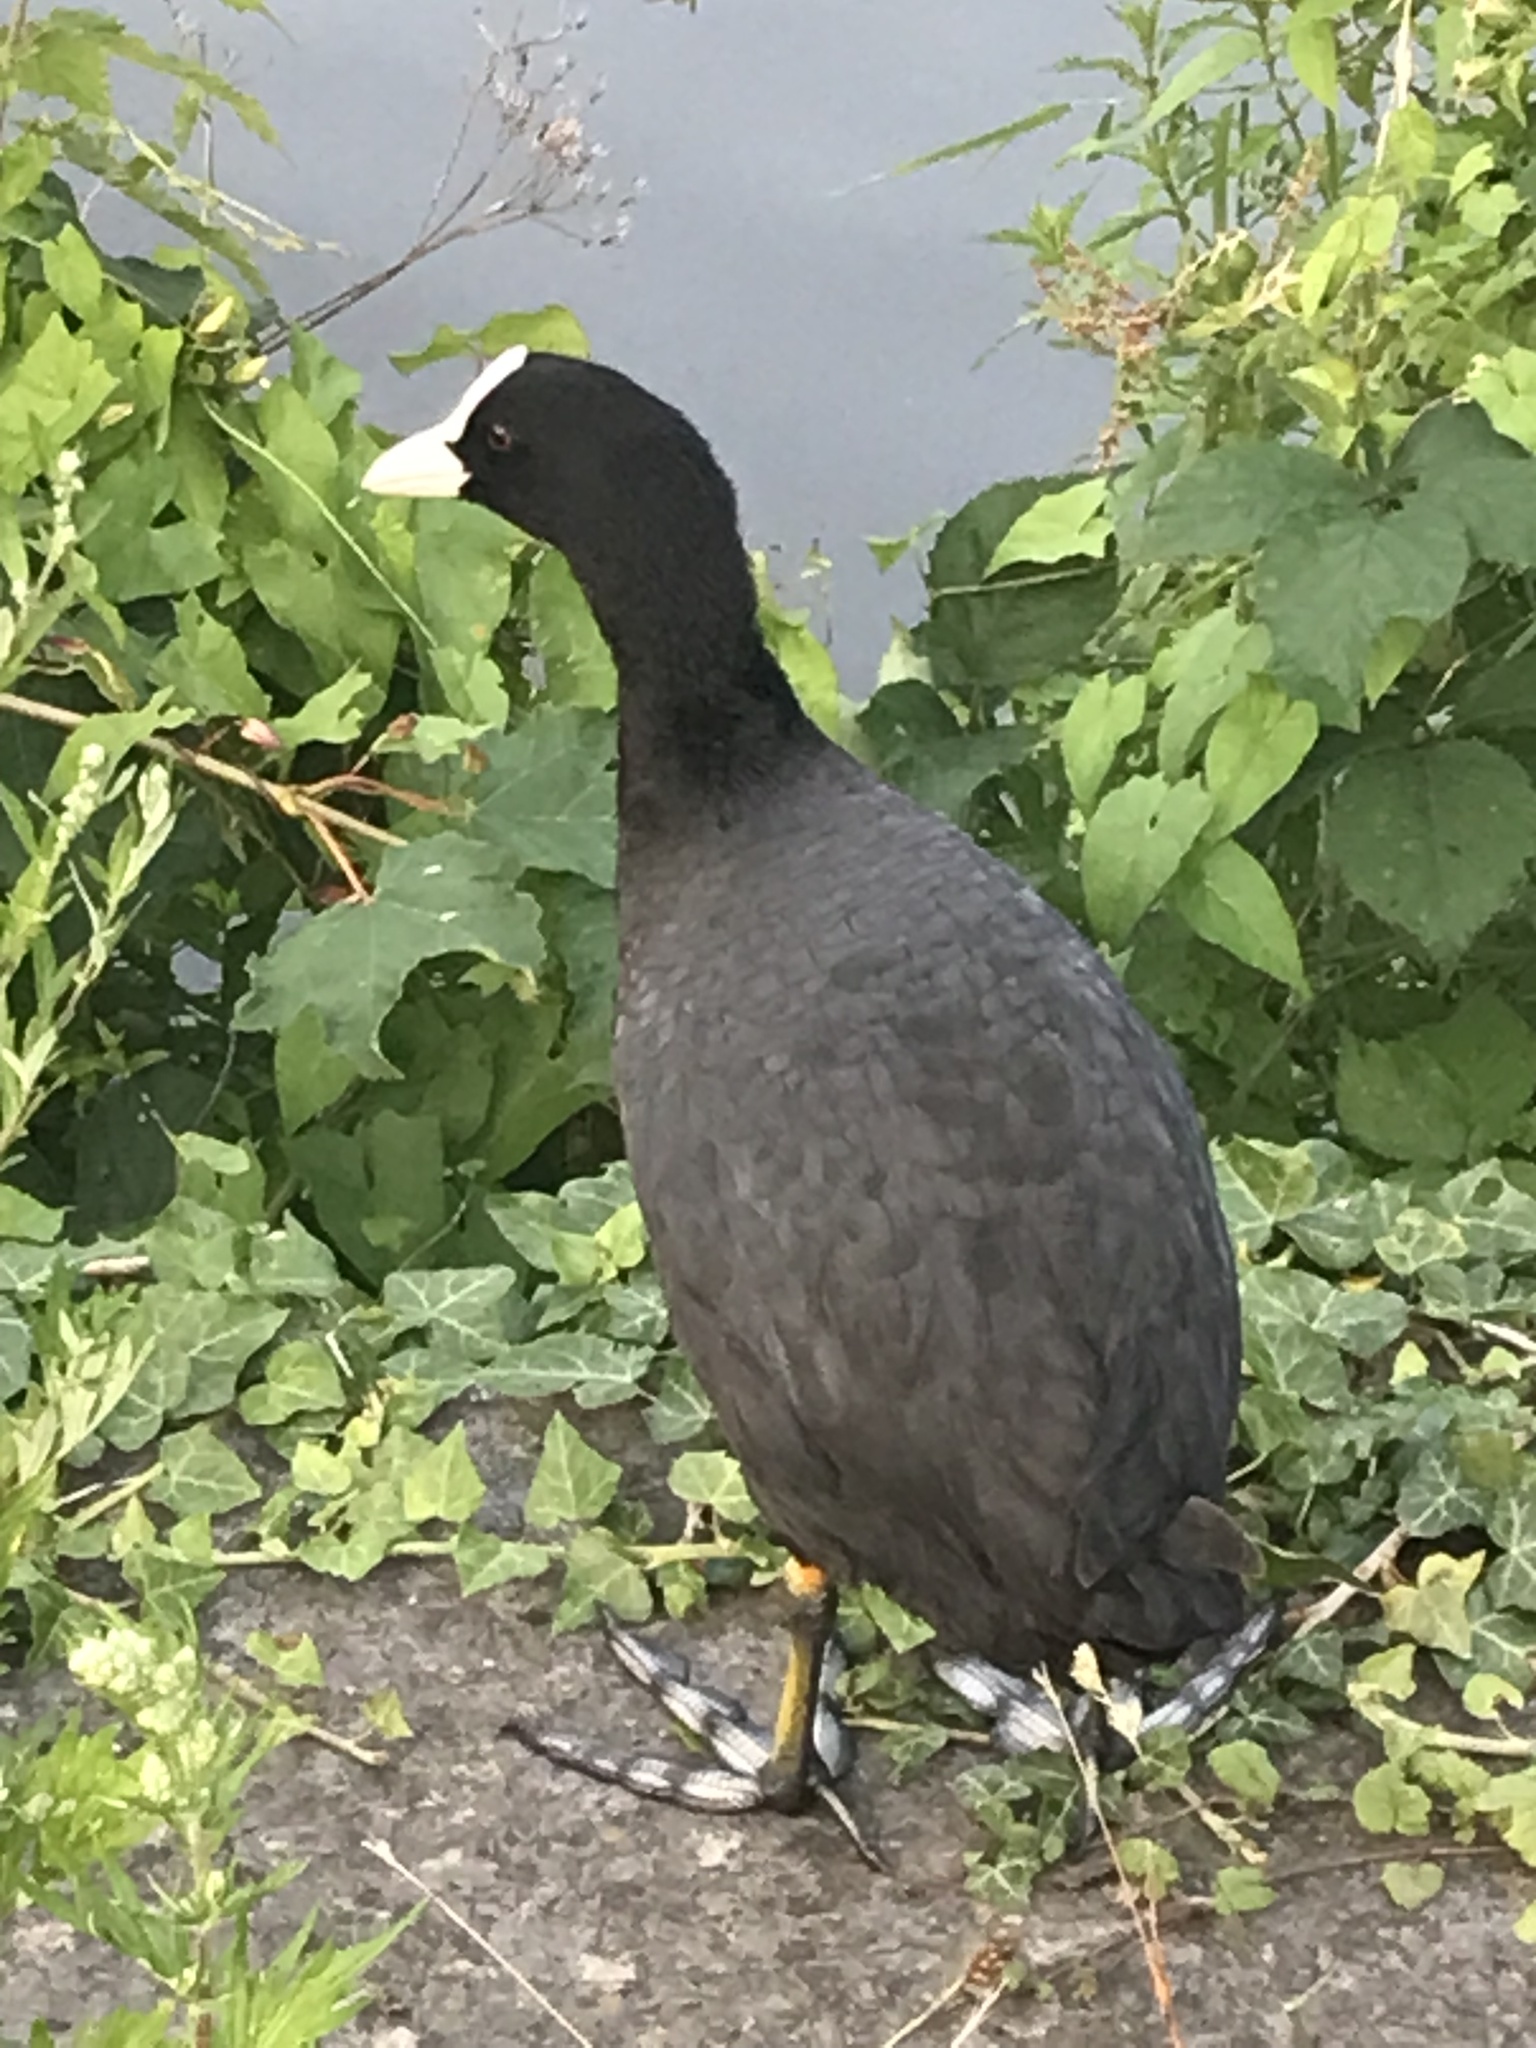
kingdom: Animalia
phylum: Chordata
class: Aves
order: Gruiformes
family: Rallidae
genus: Fulica
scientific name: Fulica atra
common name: Eurasian coot
